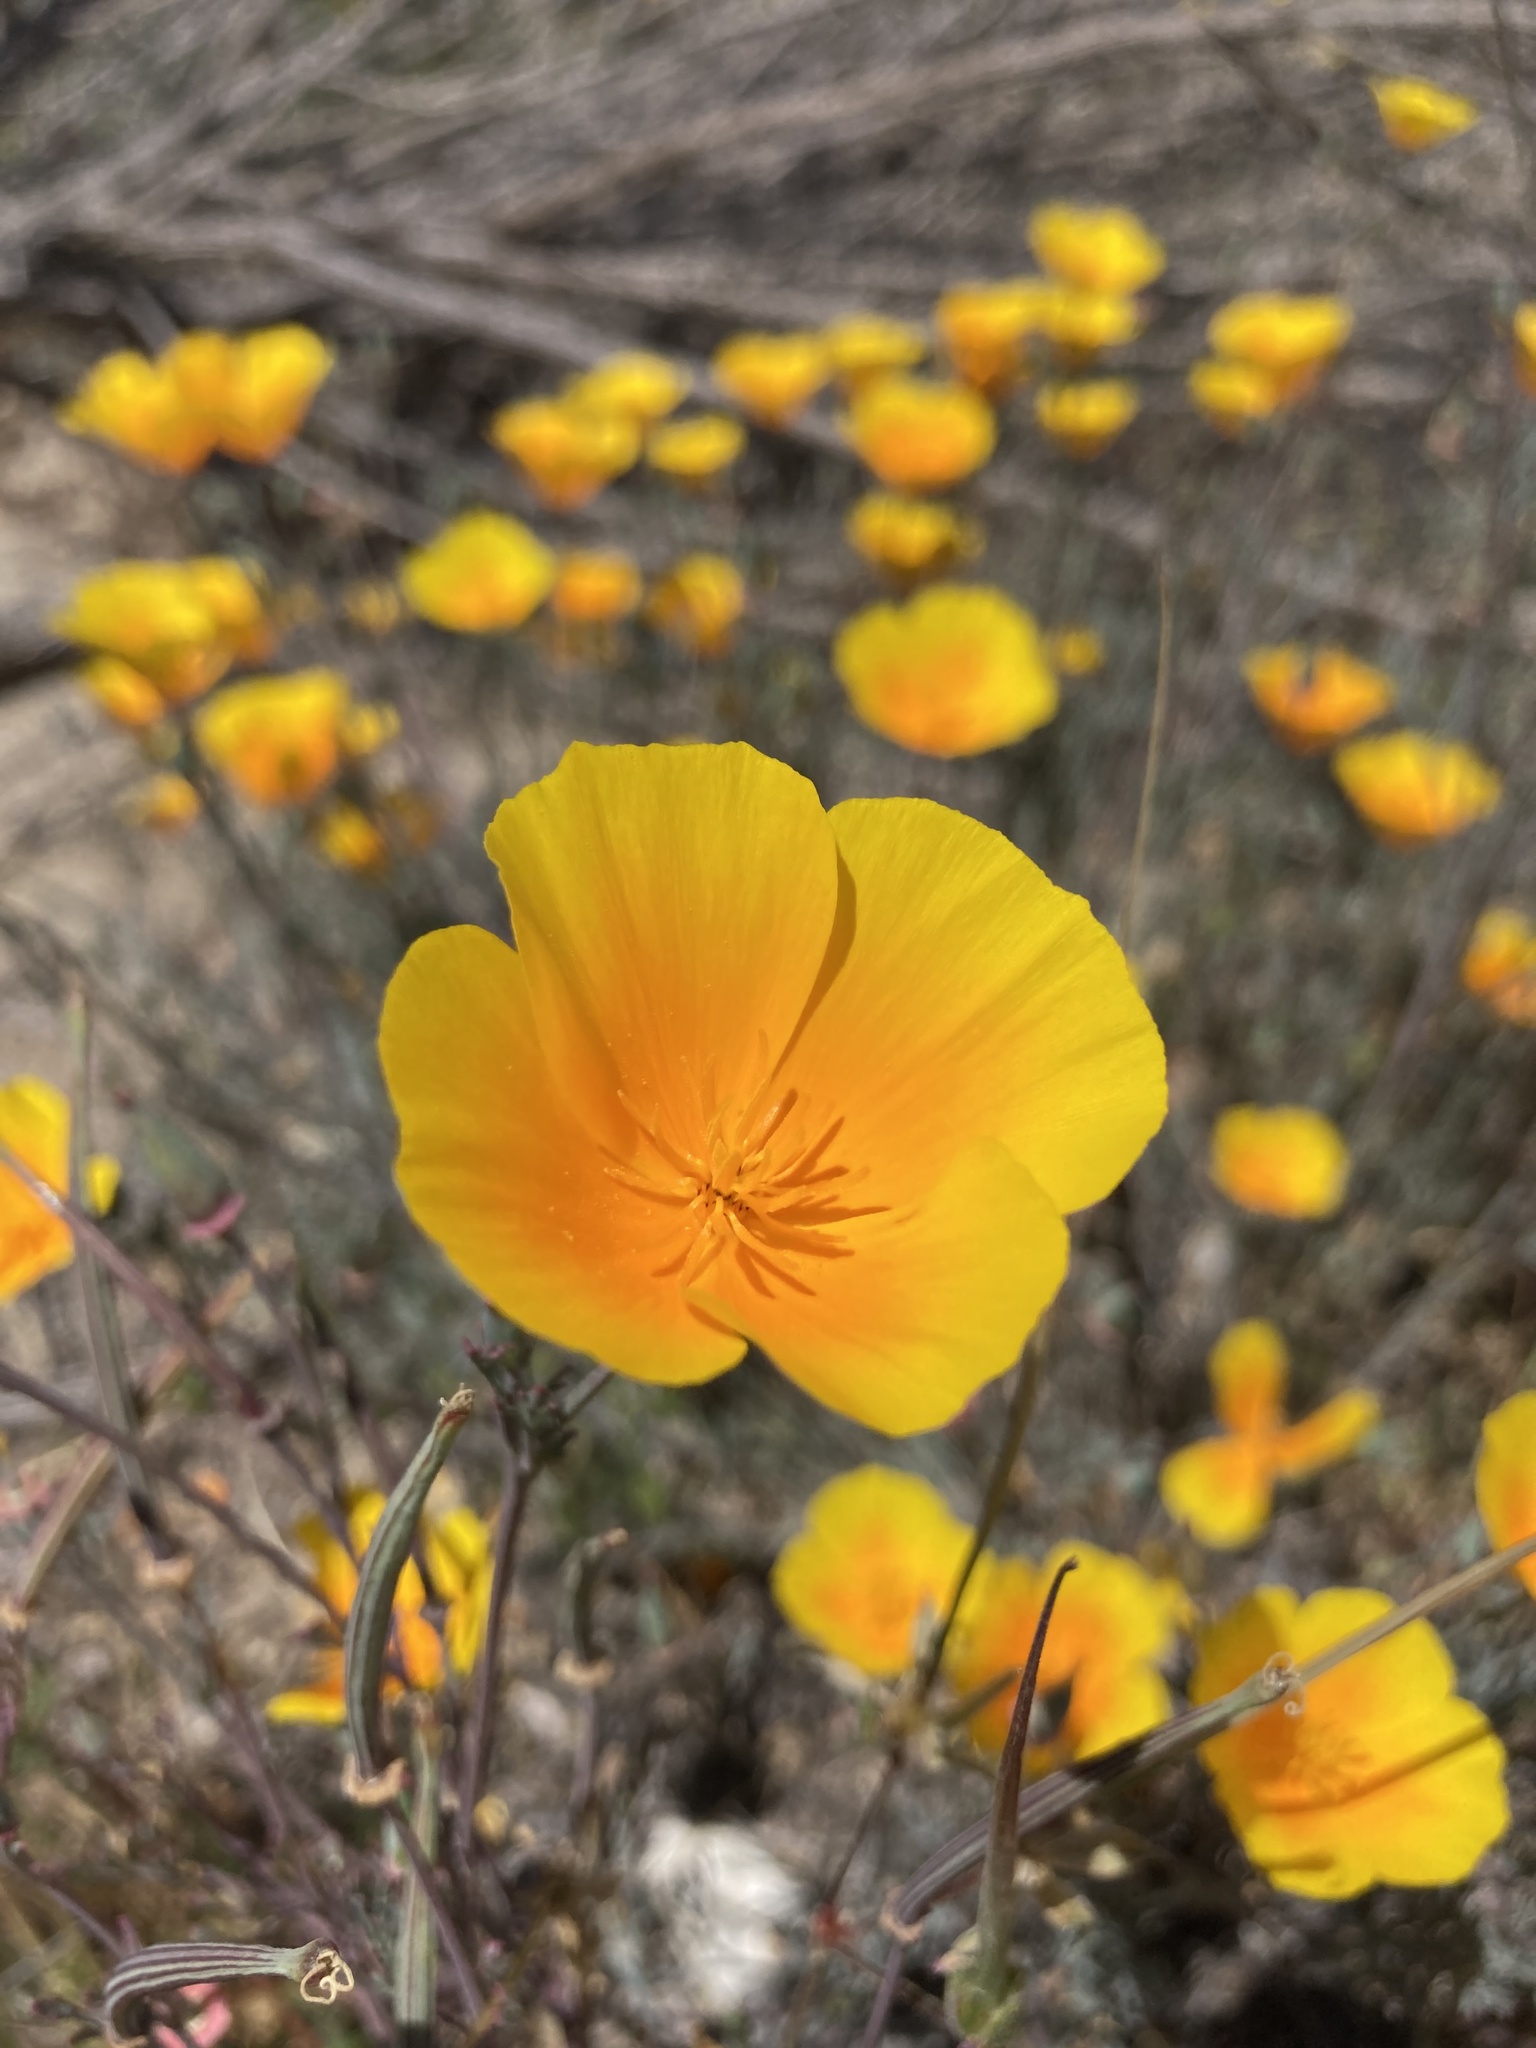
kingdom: Plantae
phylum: Tracheophyta
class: Magnoliopsida
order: Ranunculales
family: Papaveraceae
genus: Eschscholzia
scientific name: Eschscholzia californica
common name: California poppy
